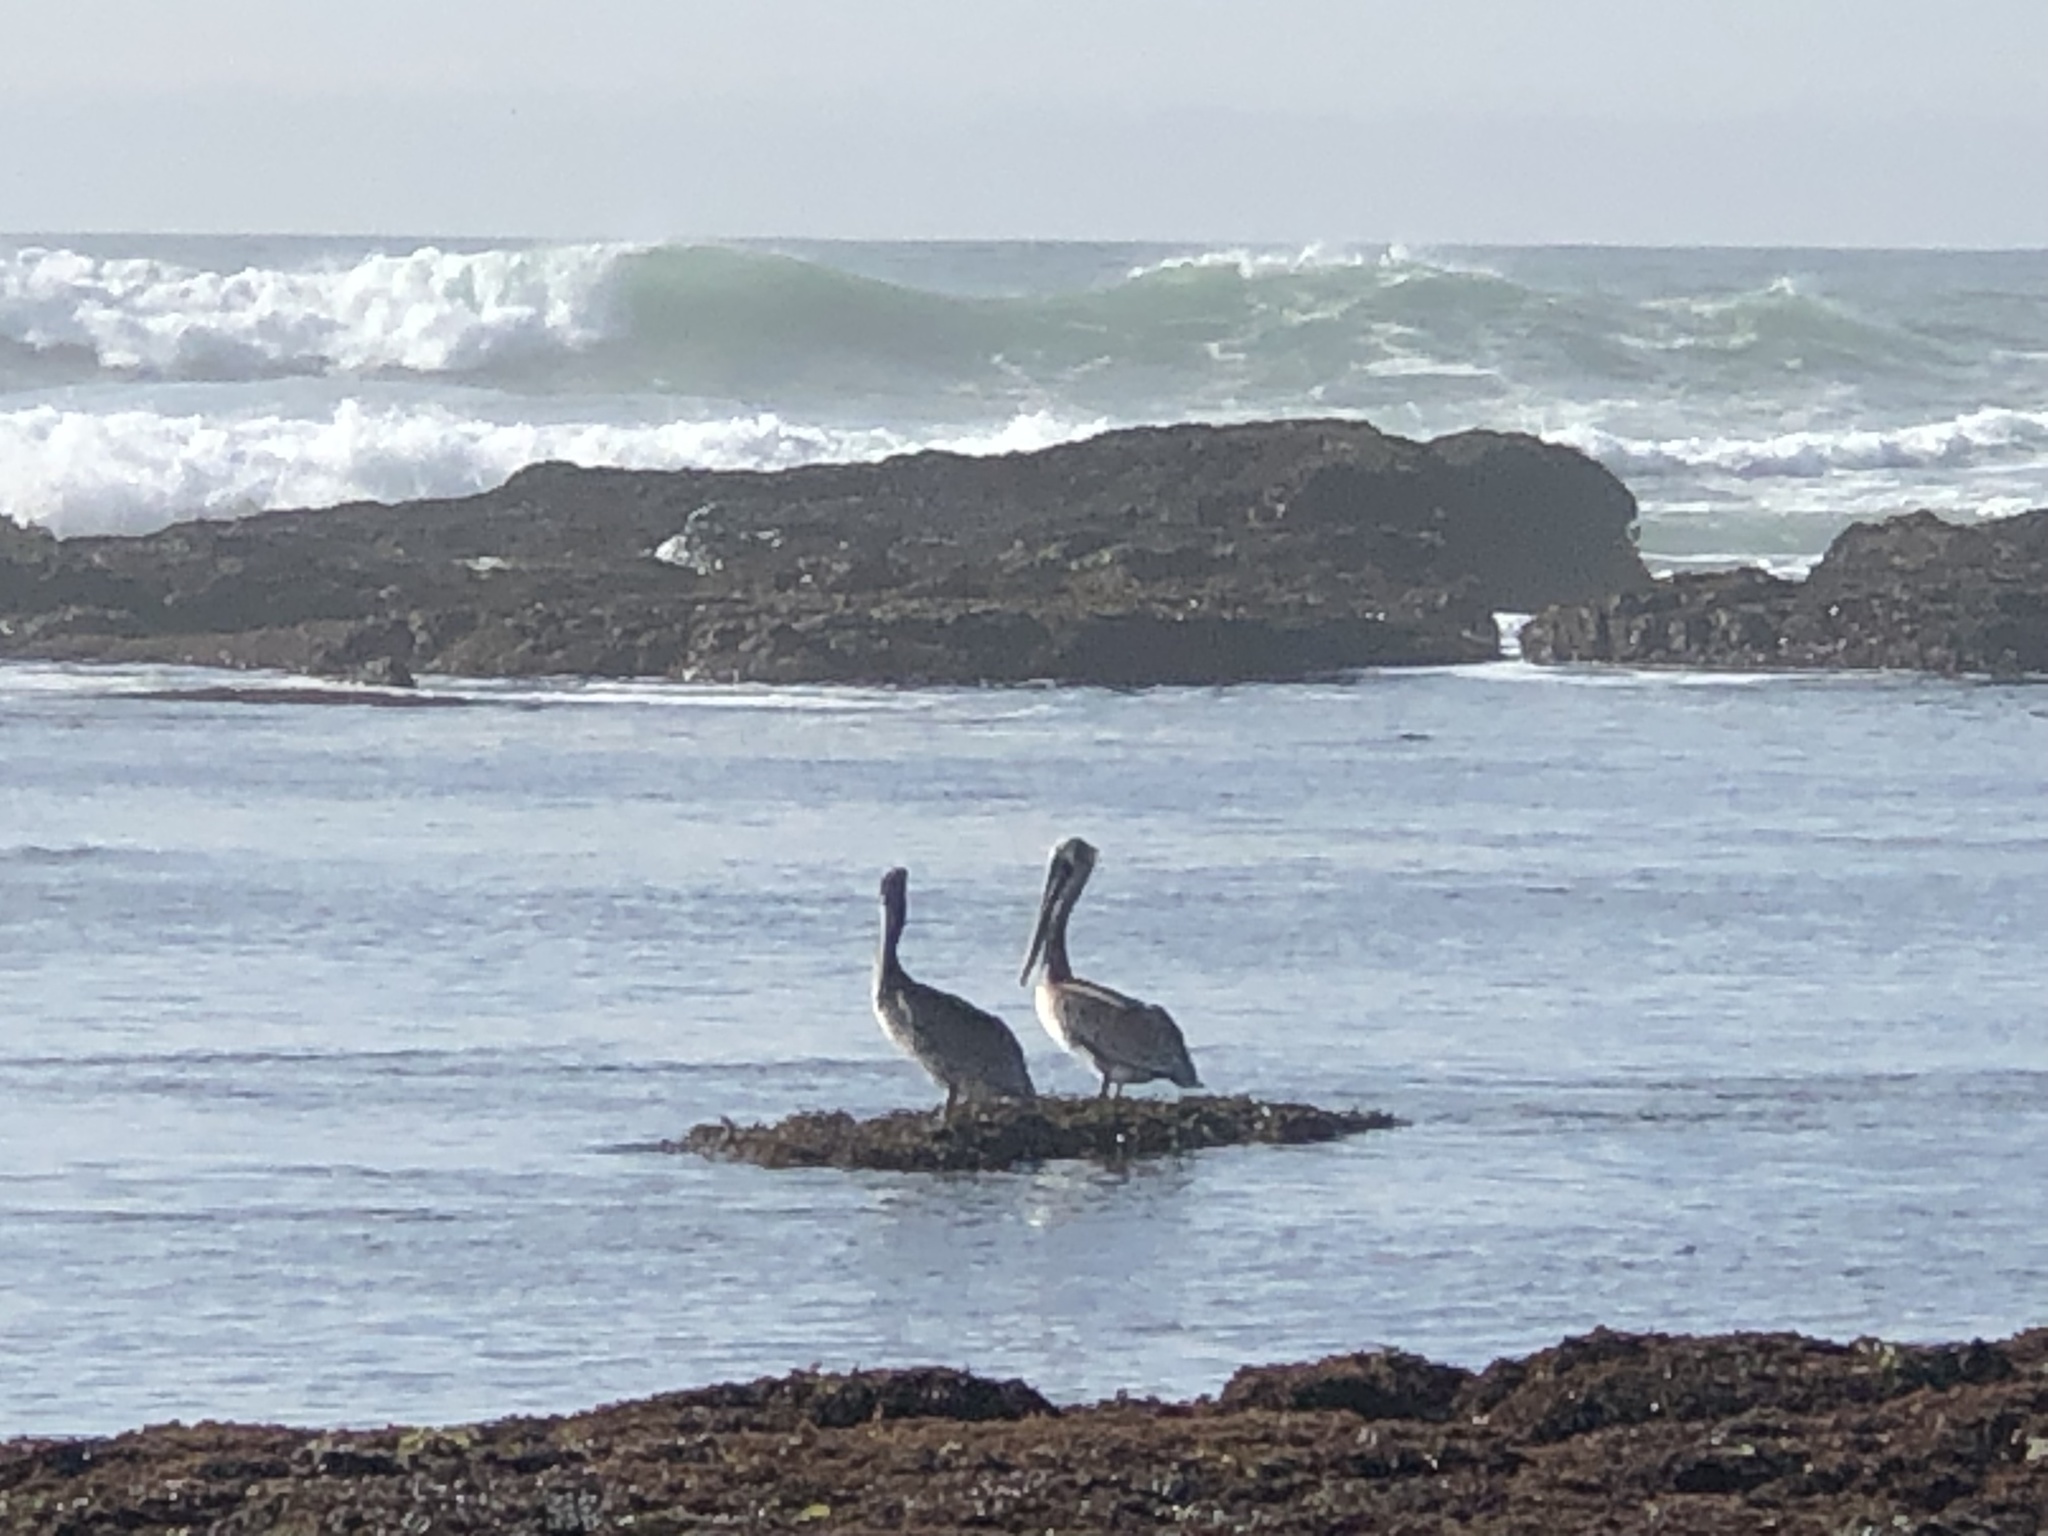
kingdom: Animalia
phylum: Chordata
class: Aves
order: Pelecaniformes
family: Pelecanidae
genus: Pelecanus
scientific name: Pelecanus occidentalis
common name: Brown pelican
